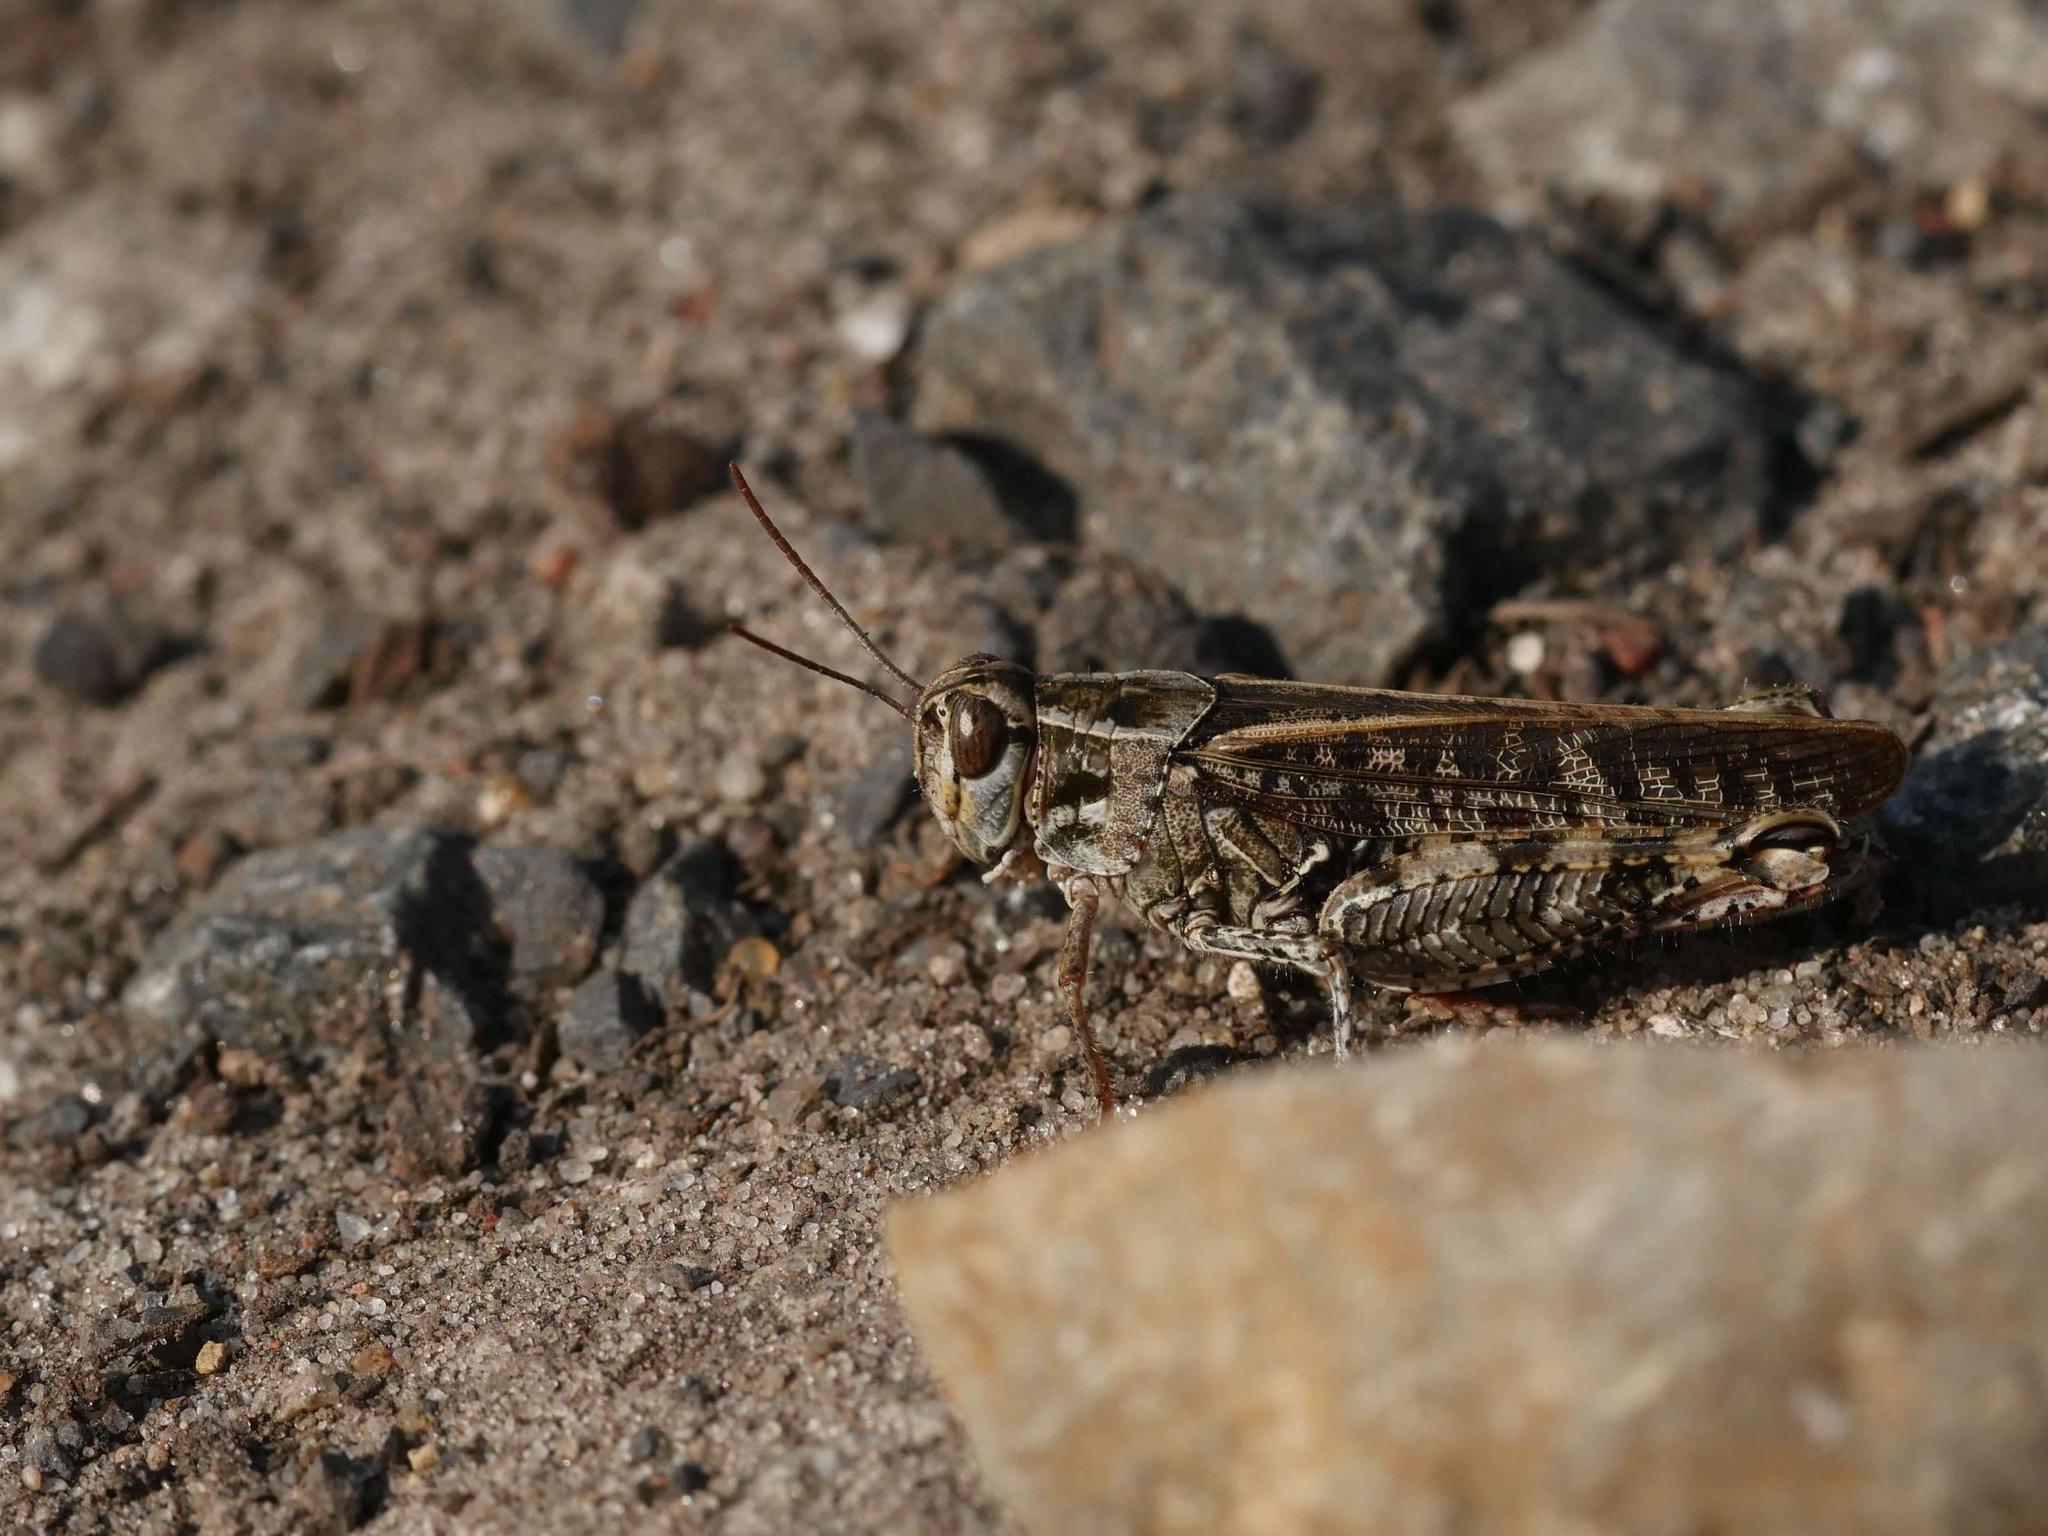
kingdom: Animalia
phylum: Arthropoda
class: Insecta
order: Orthoptera
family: Acrididae
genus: Calliptamus
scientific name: Calliptamus italicus
